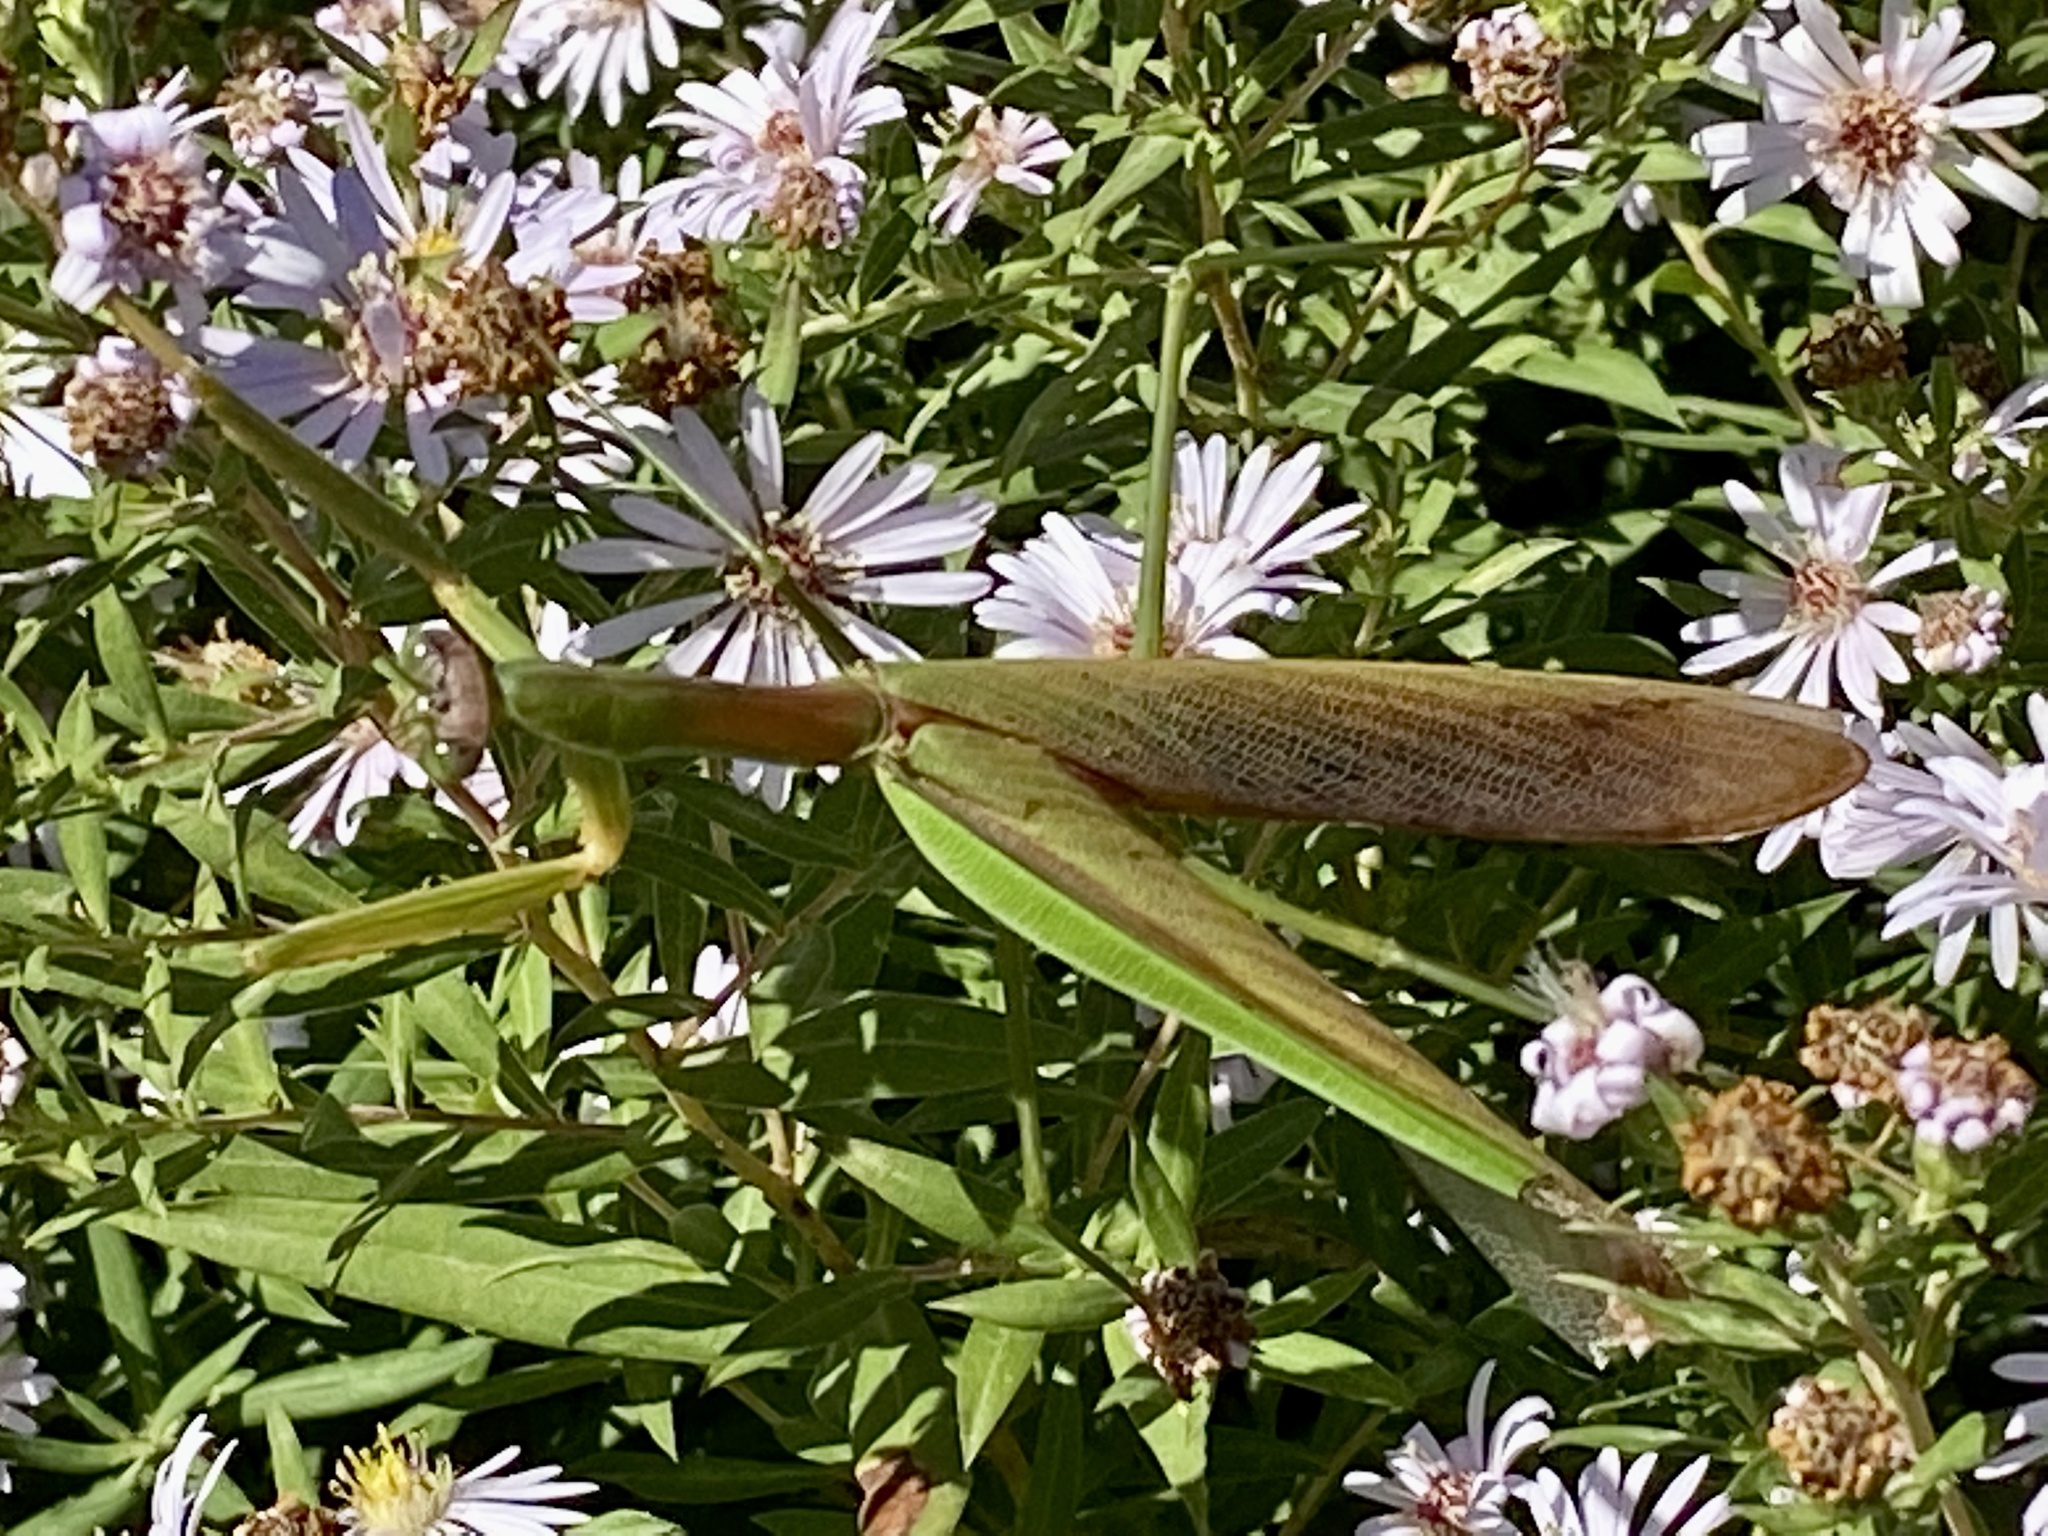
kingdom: Animalia
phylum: Arthropoda
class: Insecta
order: Mantodea
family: Mantidae
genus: Tenodera
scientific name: Tenodera sinensis
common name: Chinese mantis
